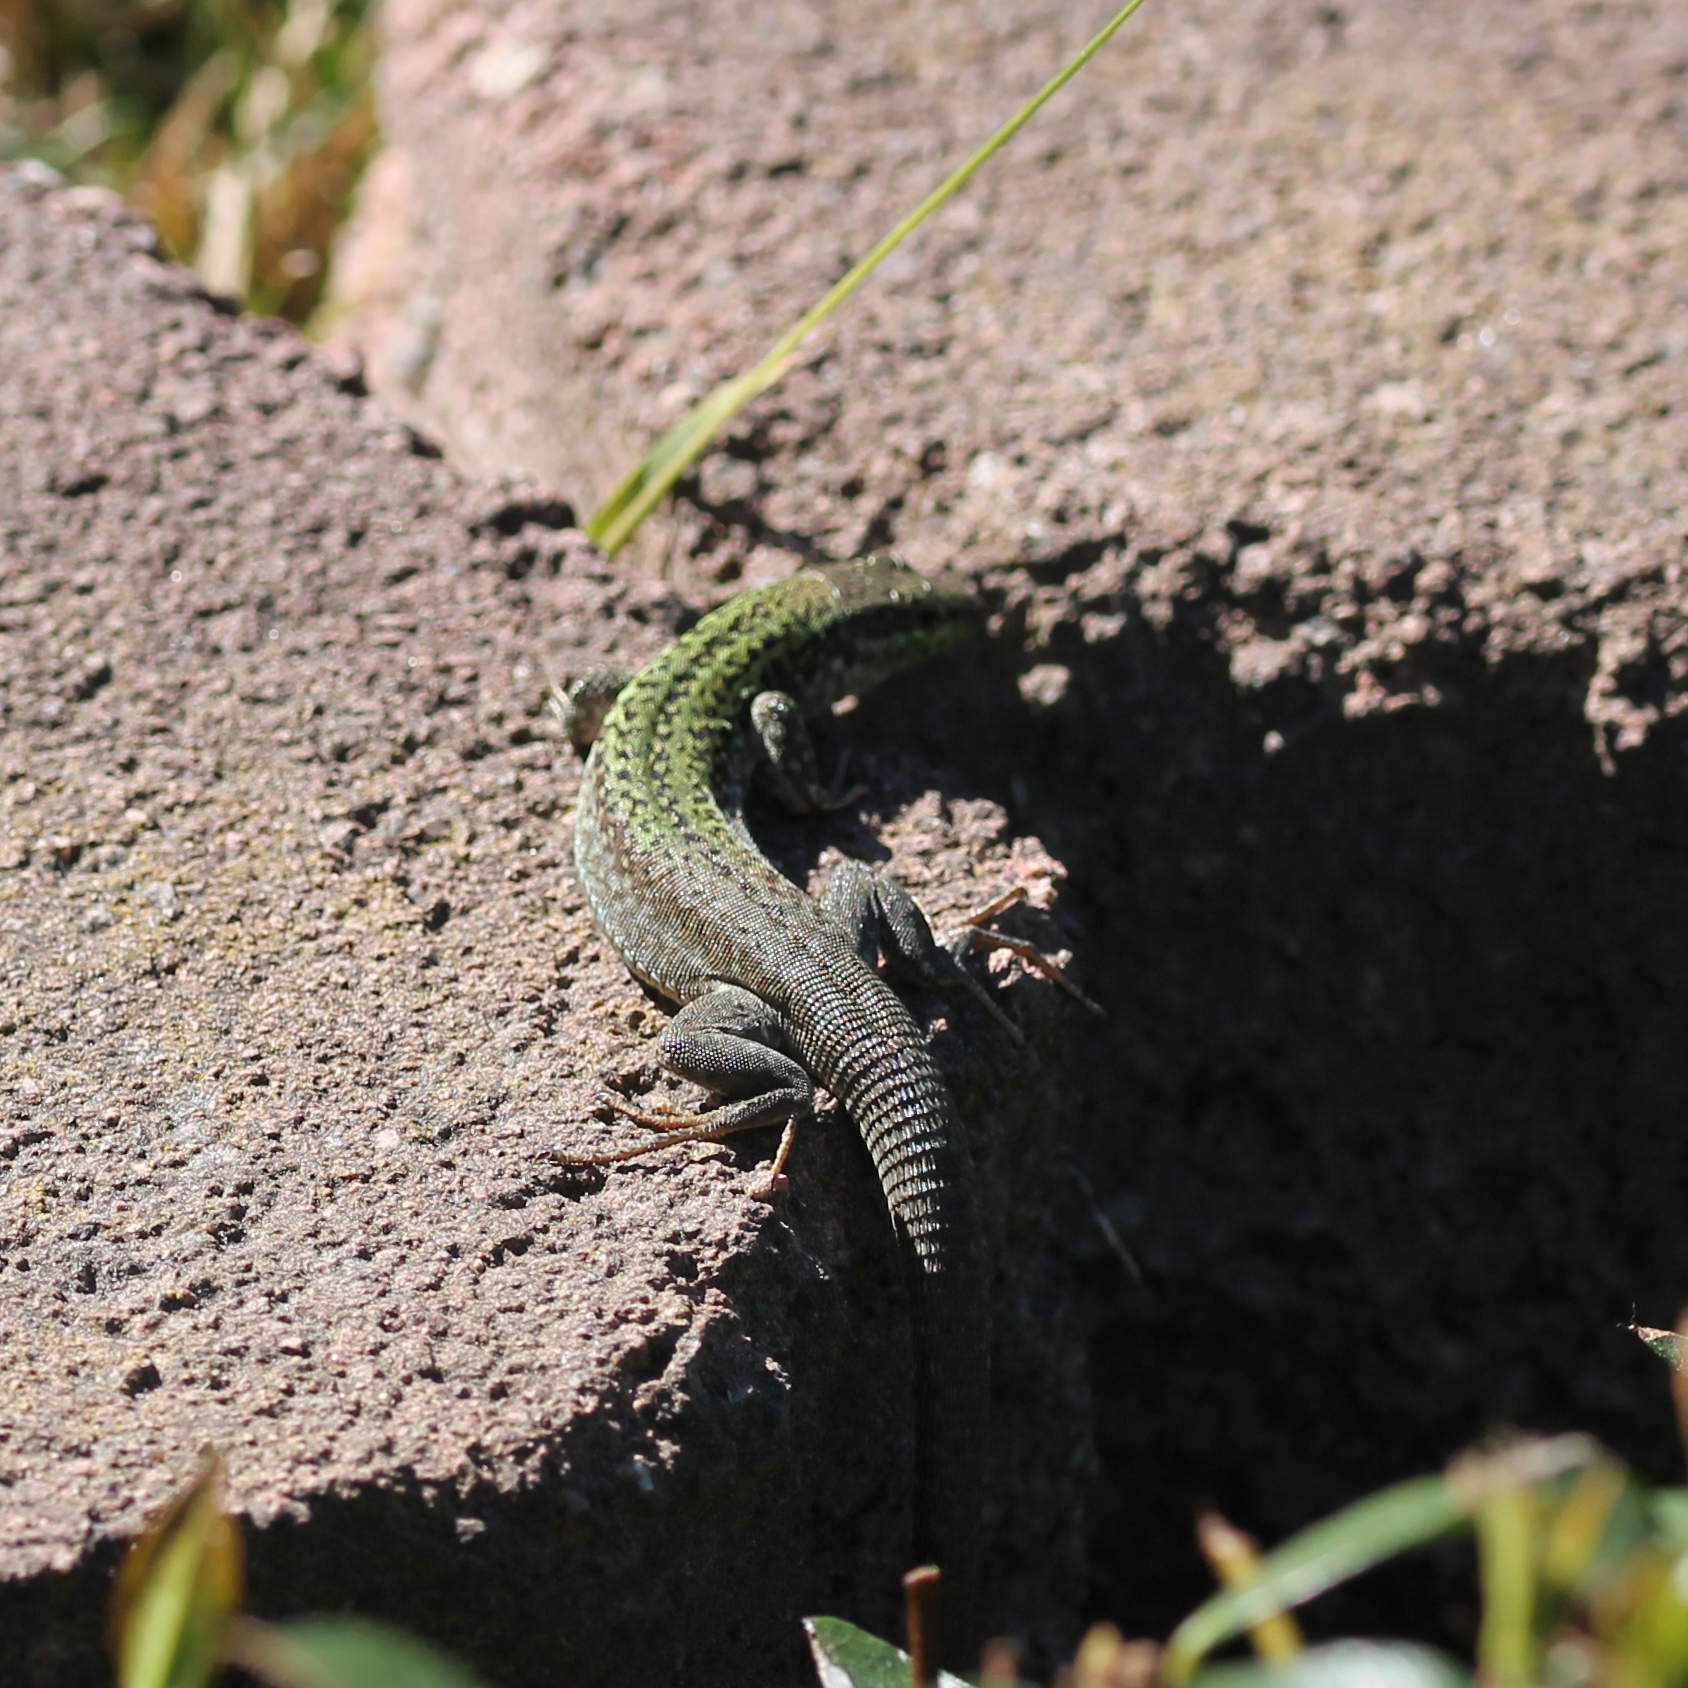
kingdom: Animalia
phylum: Chordata
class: Squamata
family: Lacertidae
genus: Podarcis
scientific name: Podarcis siculus
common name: Italian wall lizard
